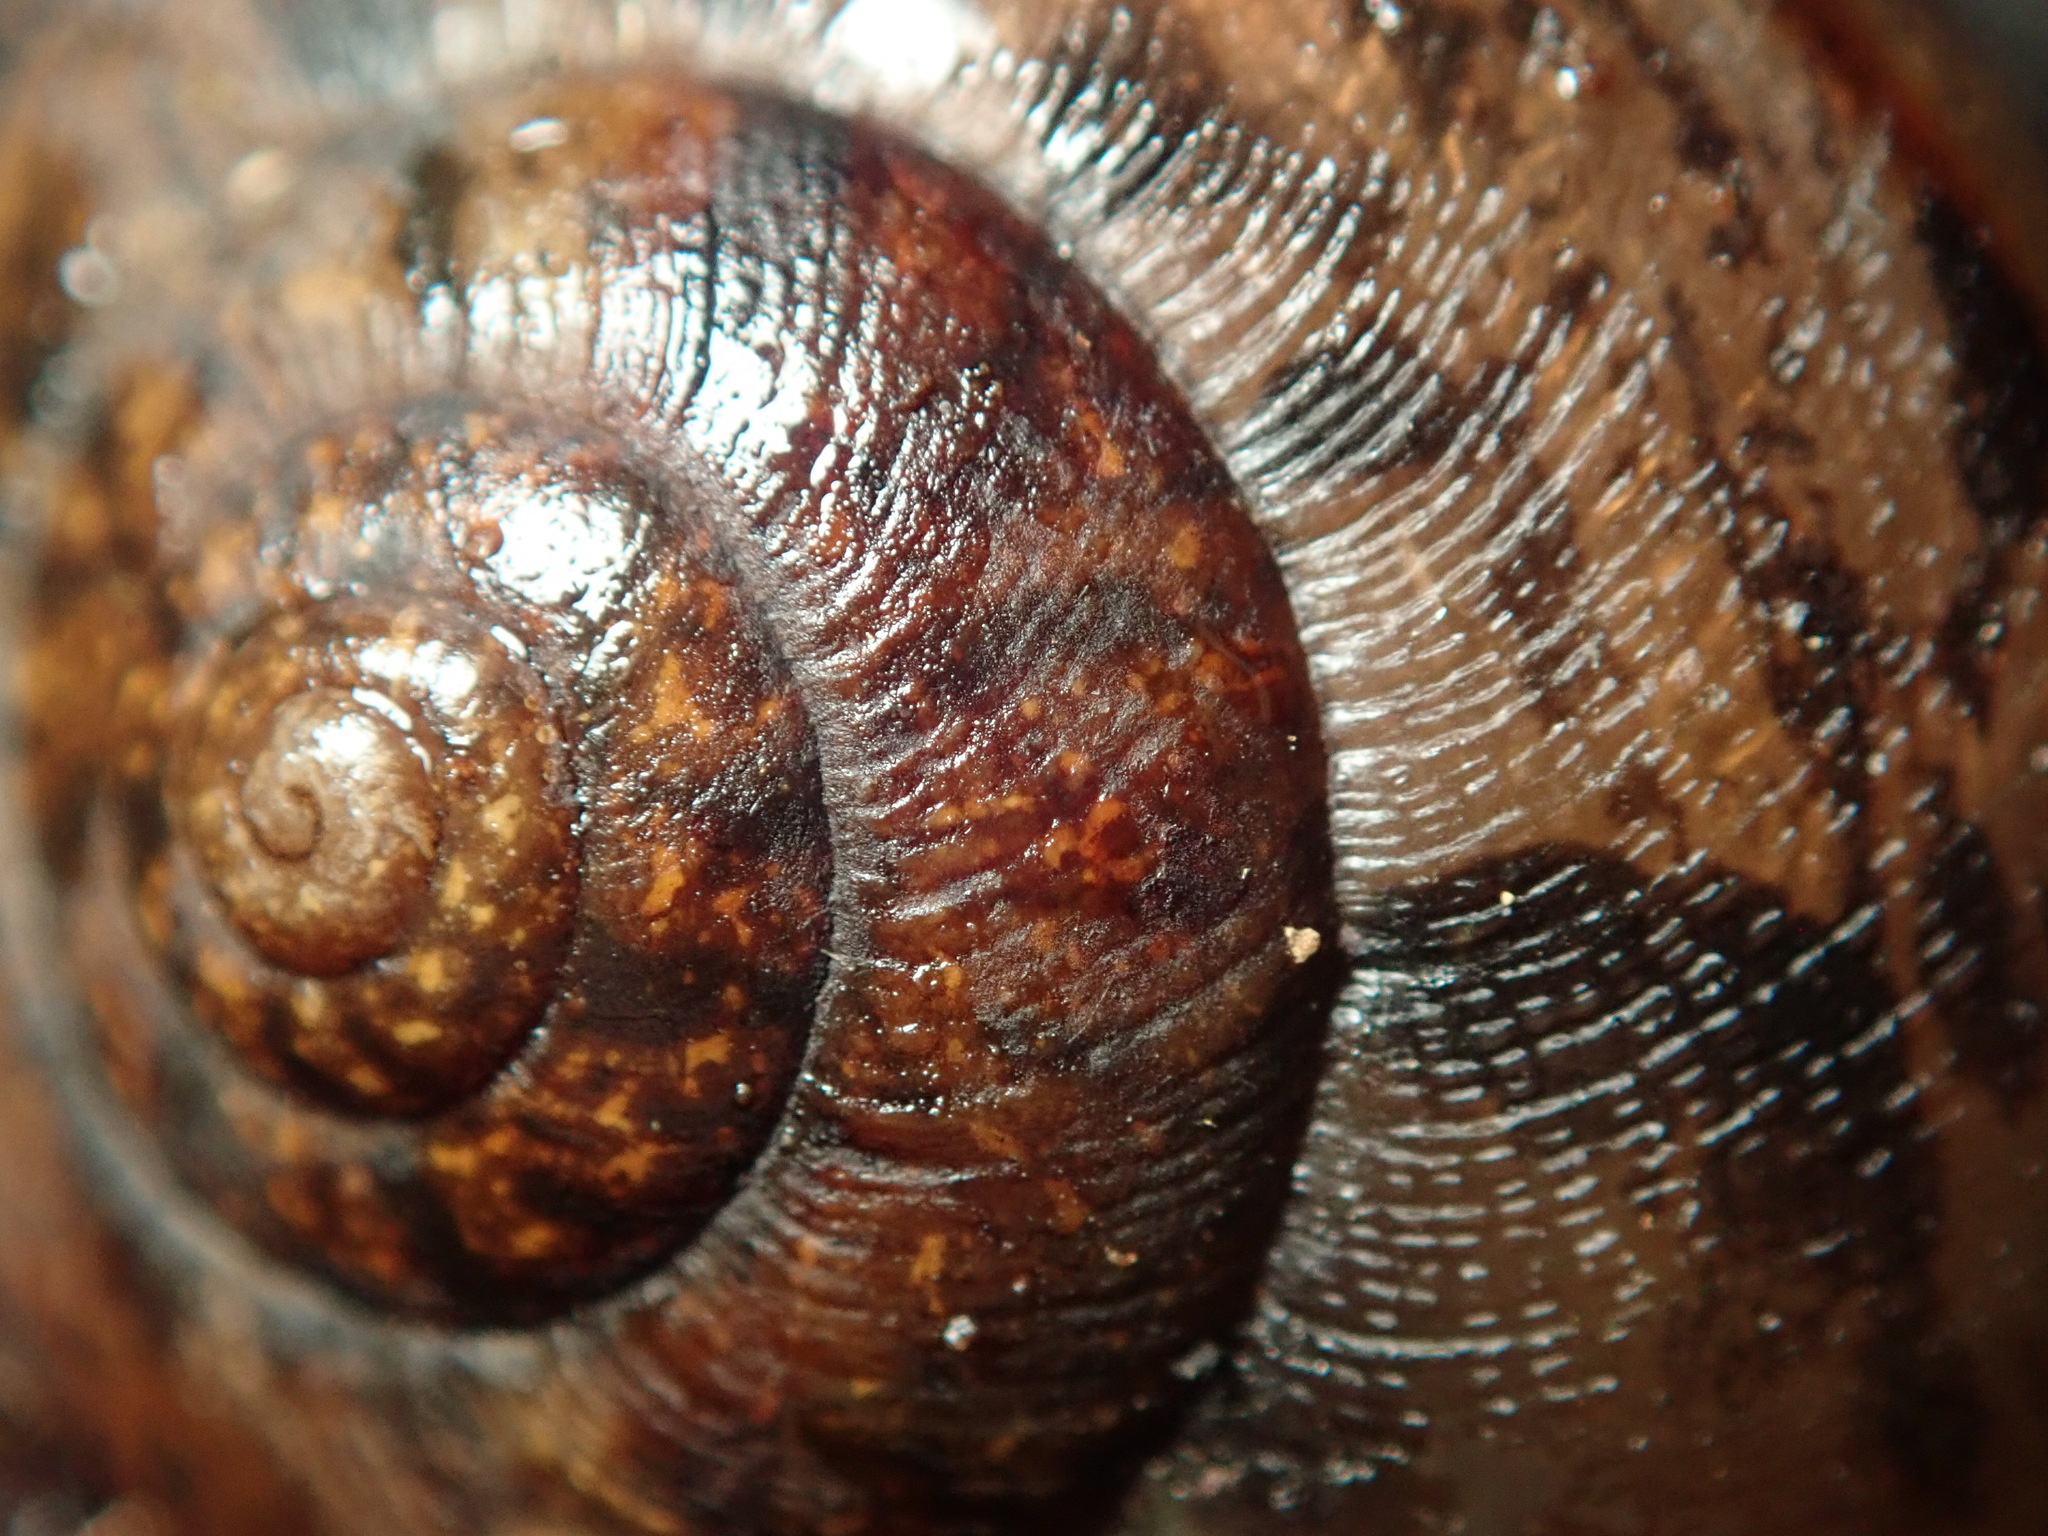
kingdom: Animalia
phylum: Mollusca
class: Gastropoda
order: Stylommatophora
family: Xanthonychidae
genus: Helminthoglypta
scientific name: Helminthoglypta nickliniana
